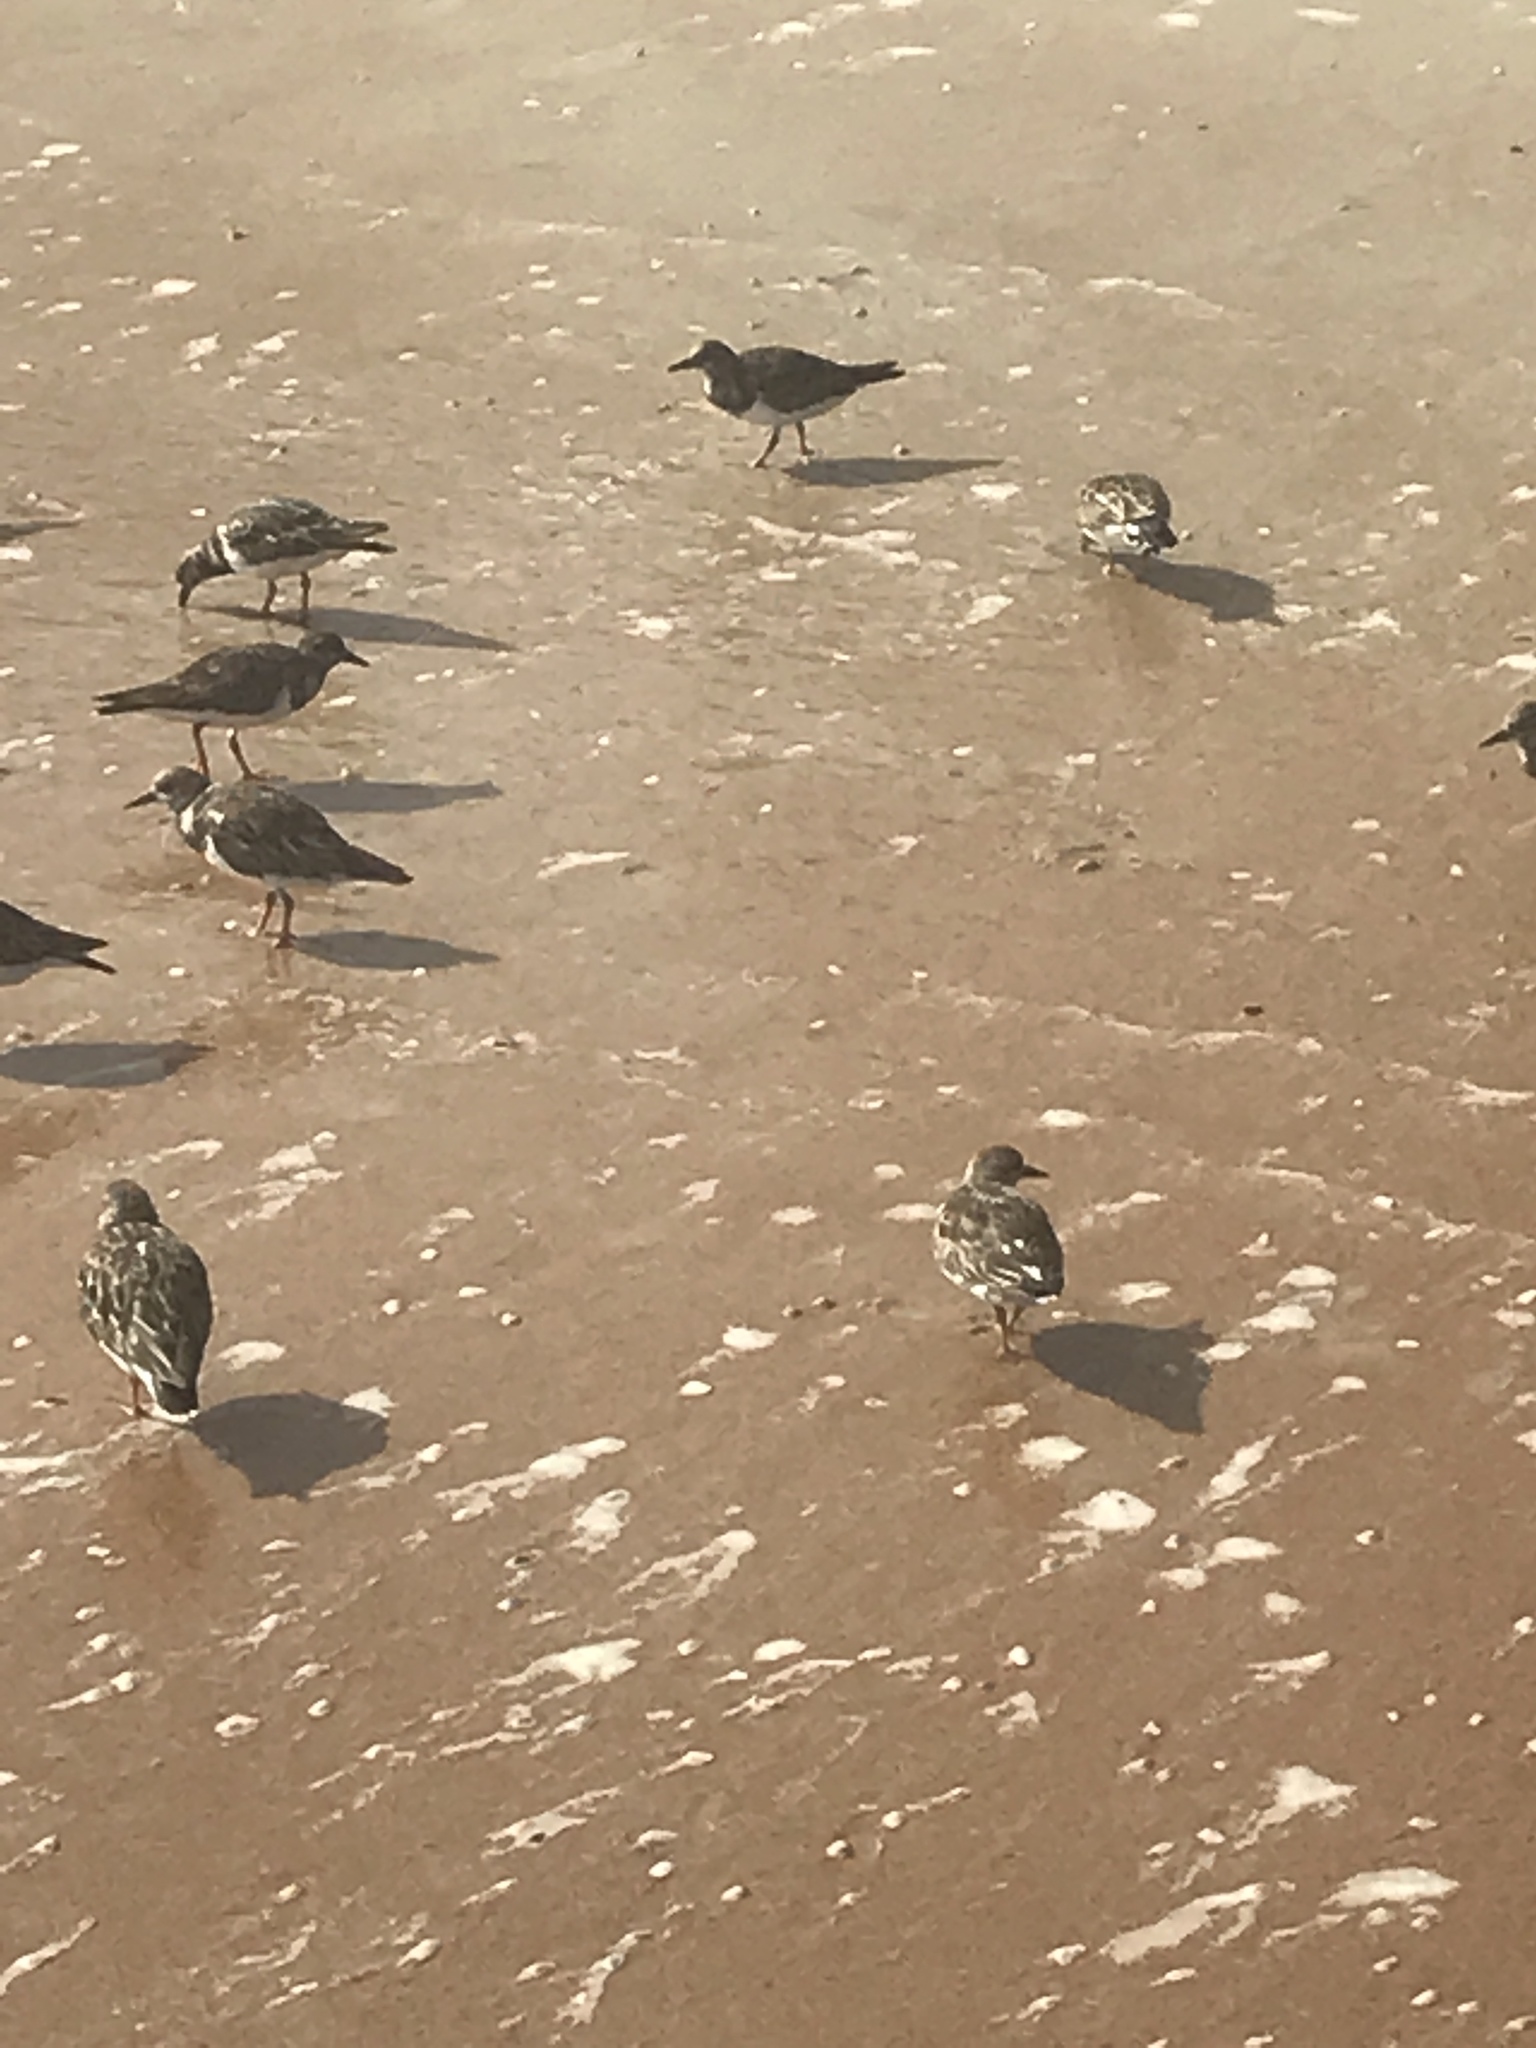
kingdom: Animalia
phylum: Chordata
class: Aves
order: Charadriiformes
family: Scolopacidae
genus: Arenaria
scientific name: Arenaria interpres
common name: Ruddy turnstone
